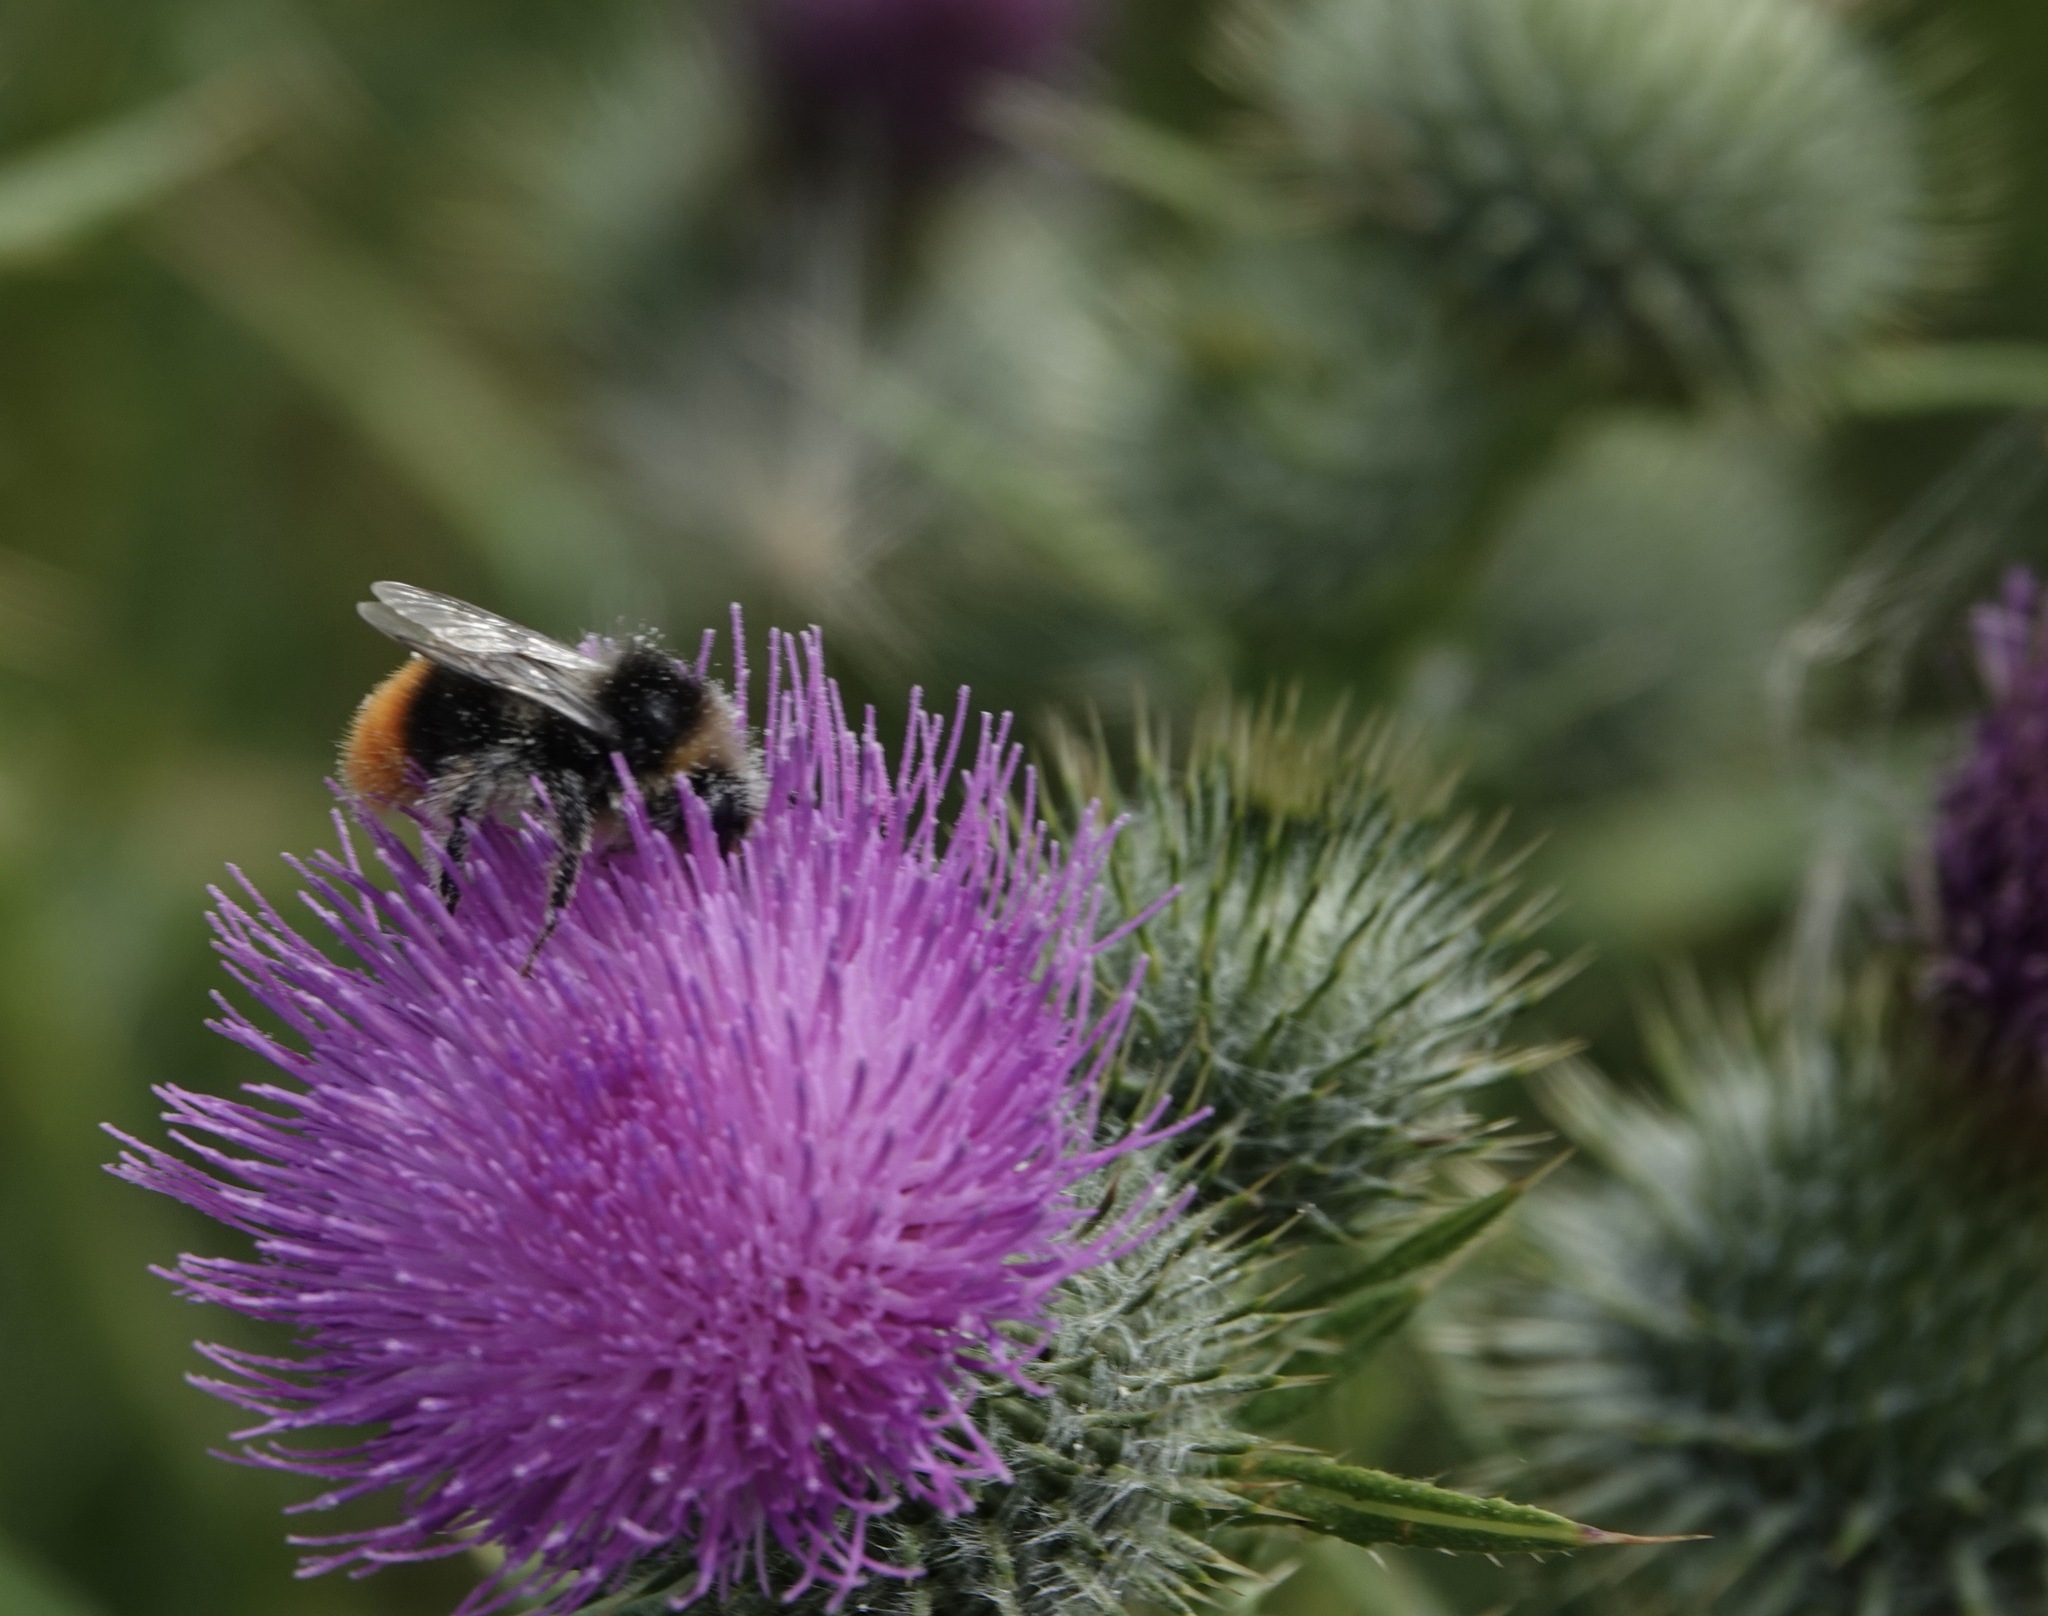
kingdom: Animalia
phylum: Arthropoda
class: Insecta
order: Hymenoptera
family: Apidae
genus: Bombus
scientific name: Bombus lapidarius
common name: Large red-tailed humble-bee
